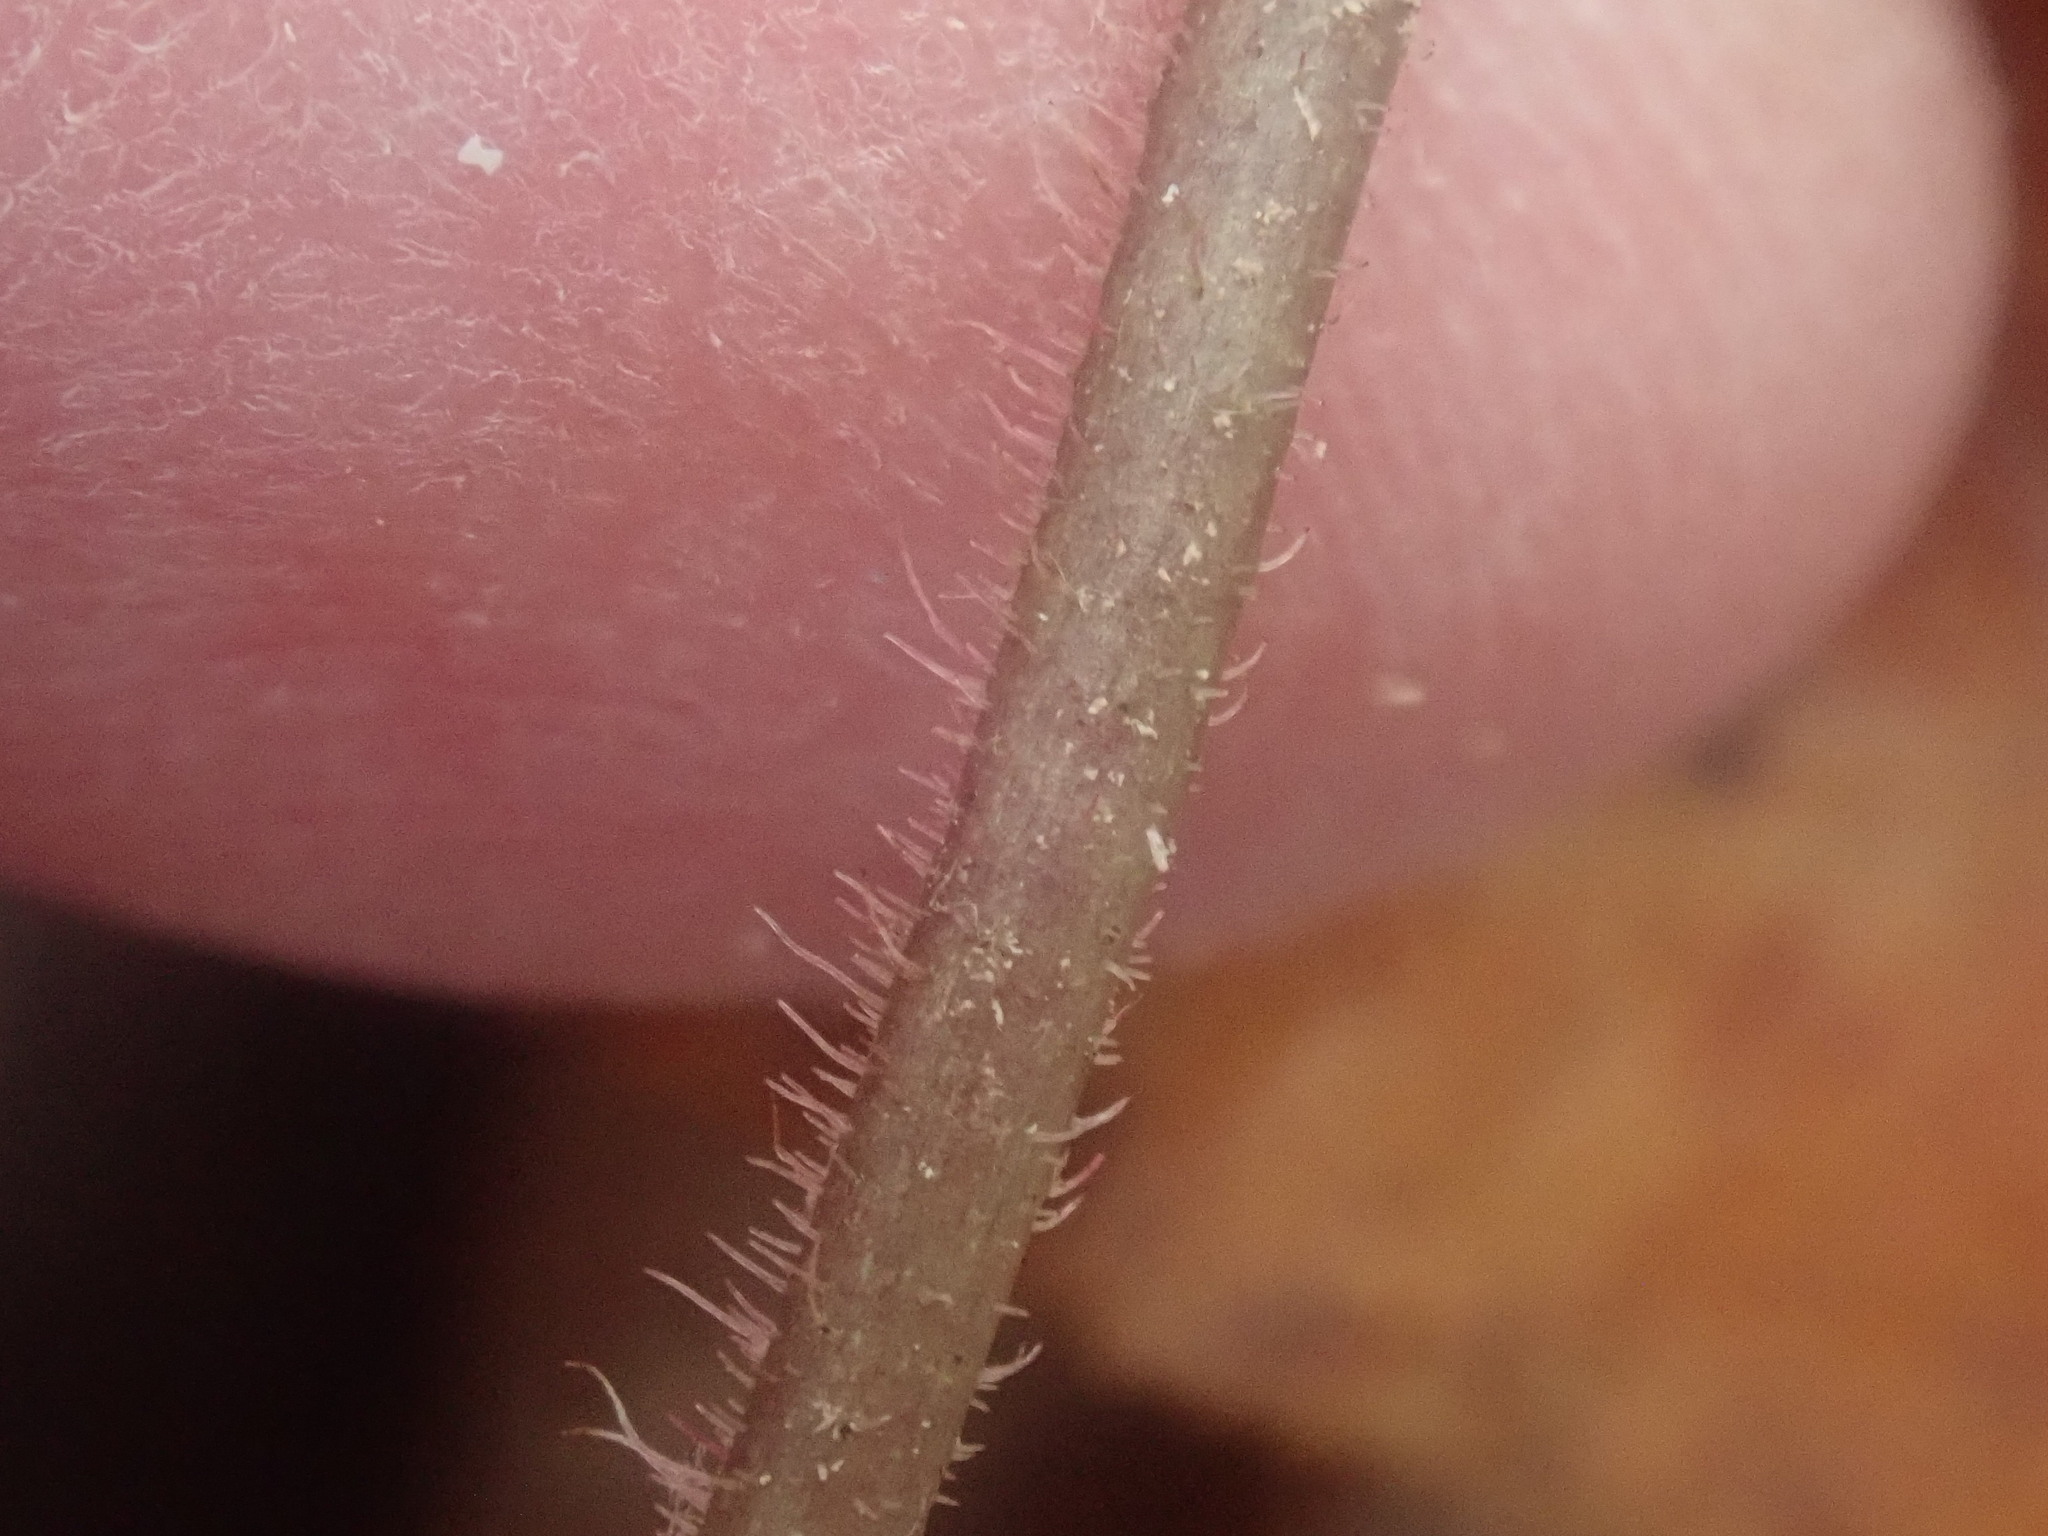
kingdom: Plantae
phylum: Tracheophyta
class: Magnoliopsida
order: Saxifragales
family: Saxifragaceae
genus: Tiarella
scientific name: Tiarella stolonifera
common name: Stoloniferous foamflower
